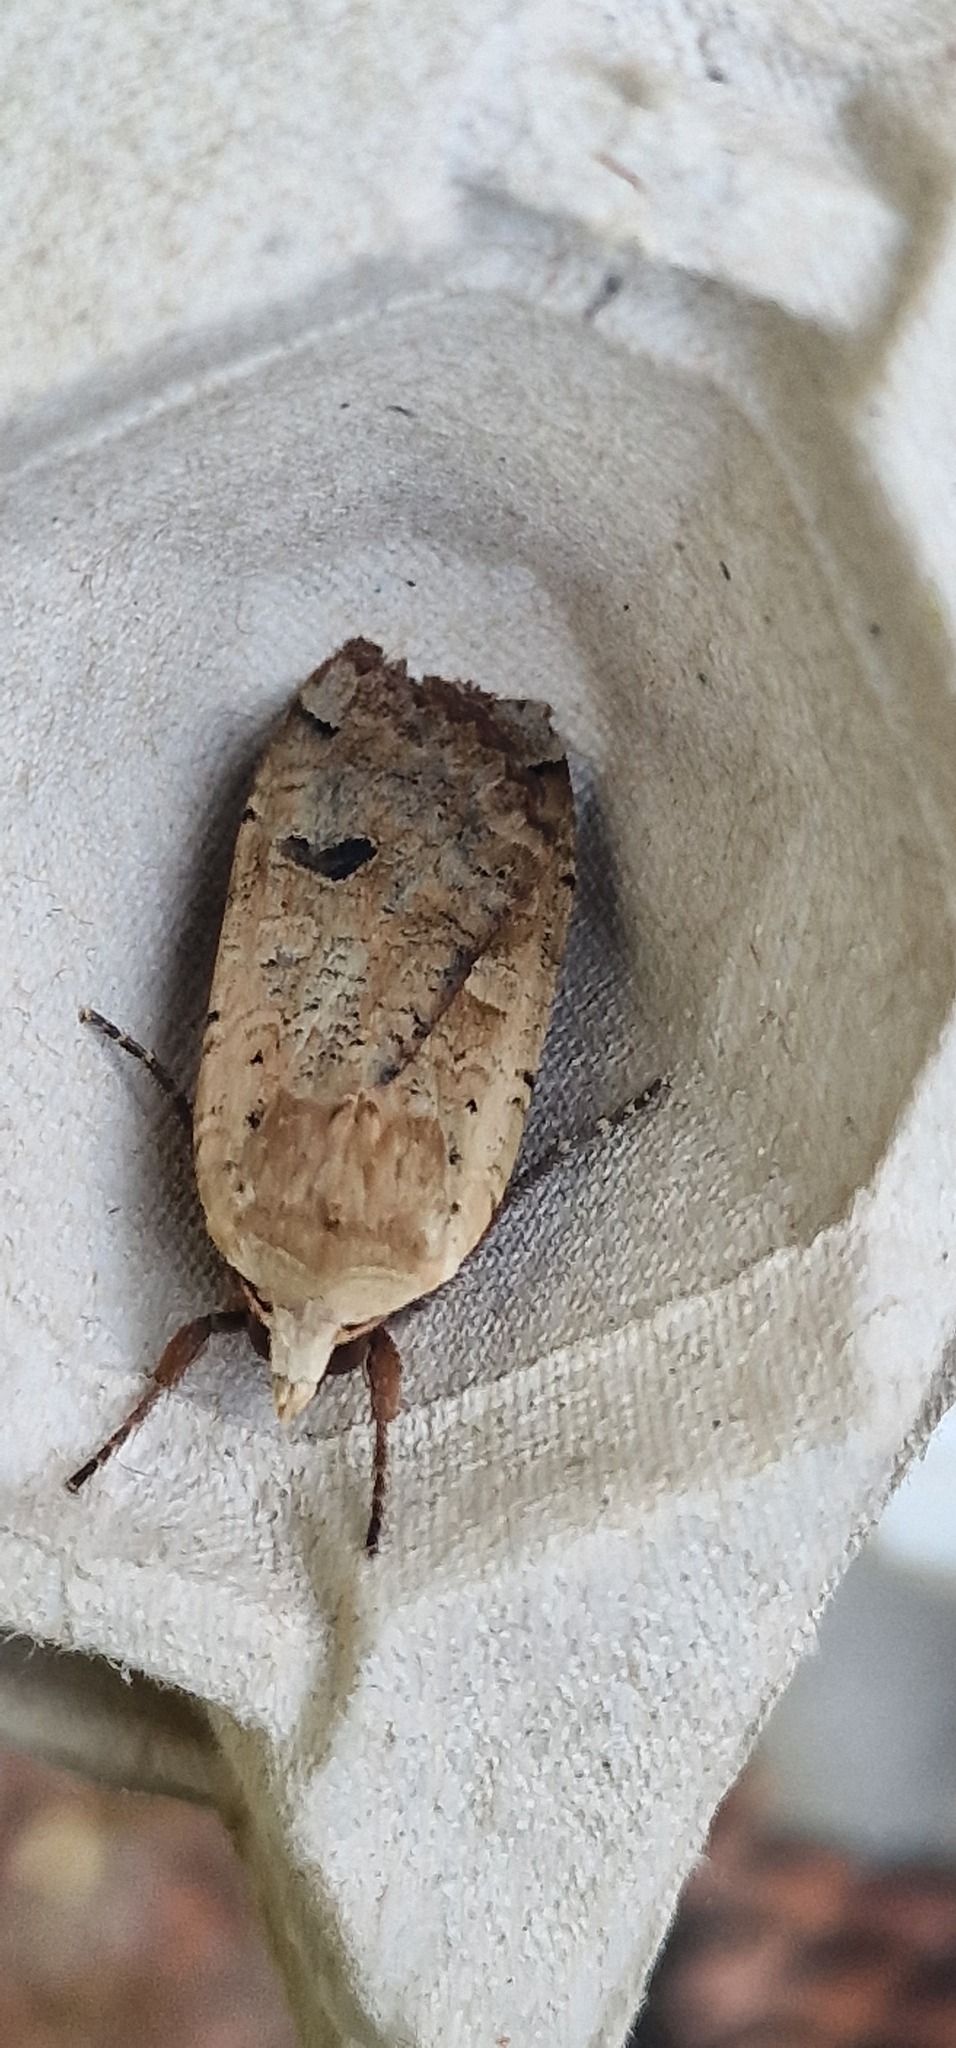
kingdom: Animalia
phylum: Arthropoda
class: Insecta
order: Lepidoptera
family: Noctuidae
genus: Noctua
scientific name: Noctua pronuba
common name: Large yellow underwing
